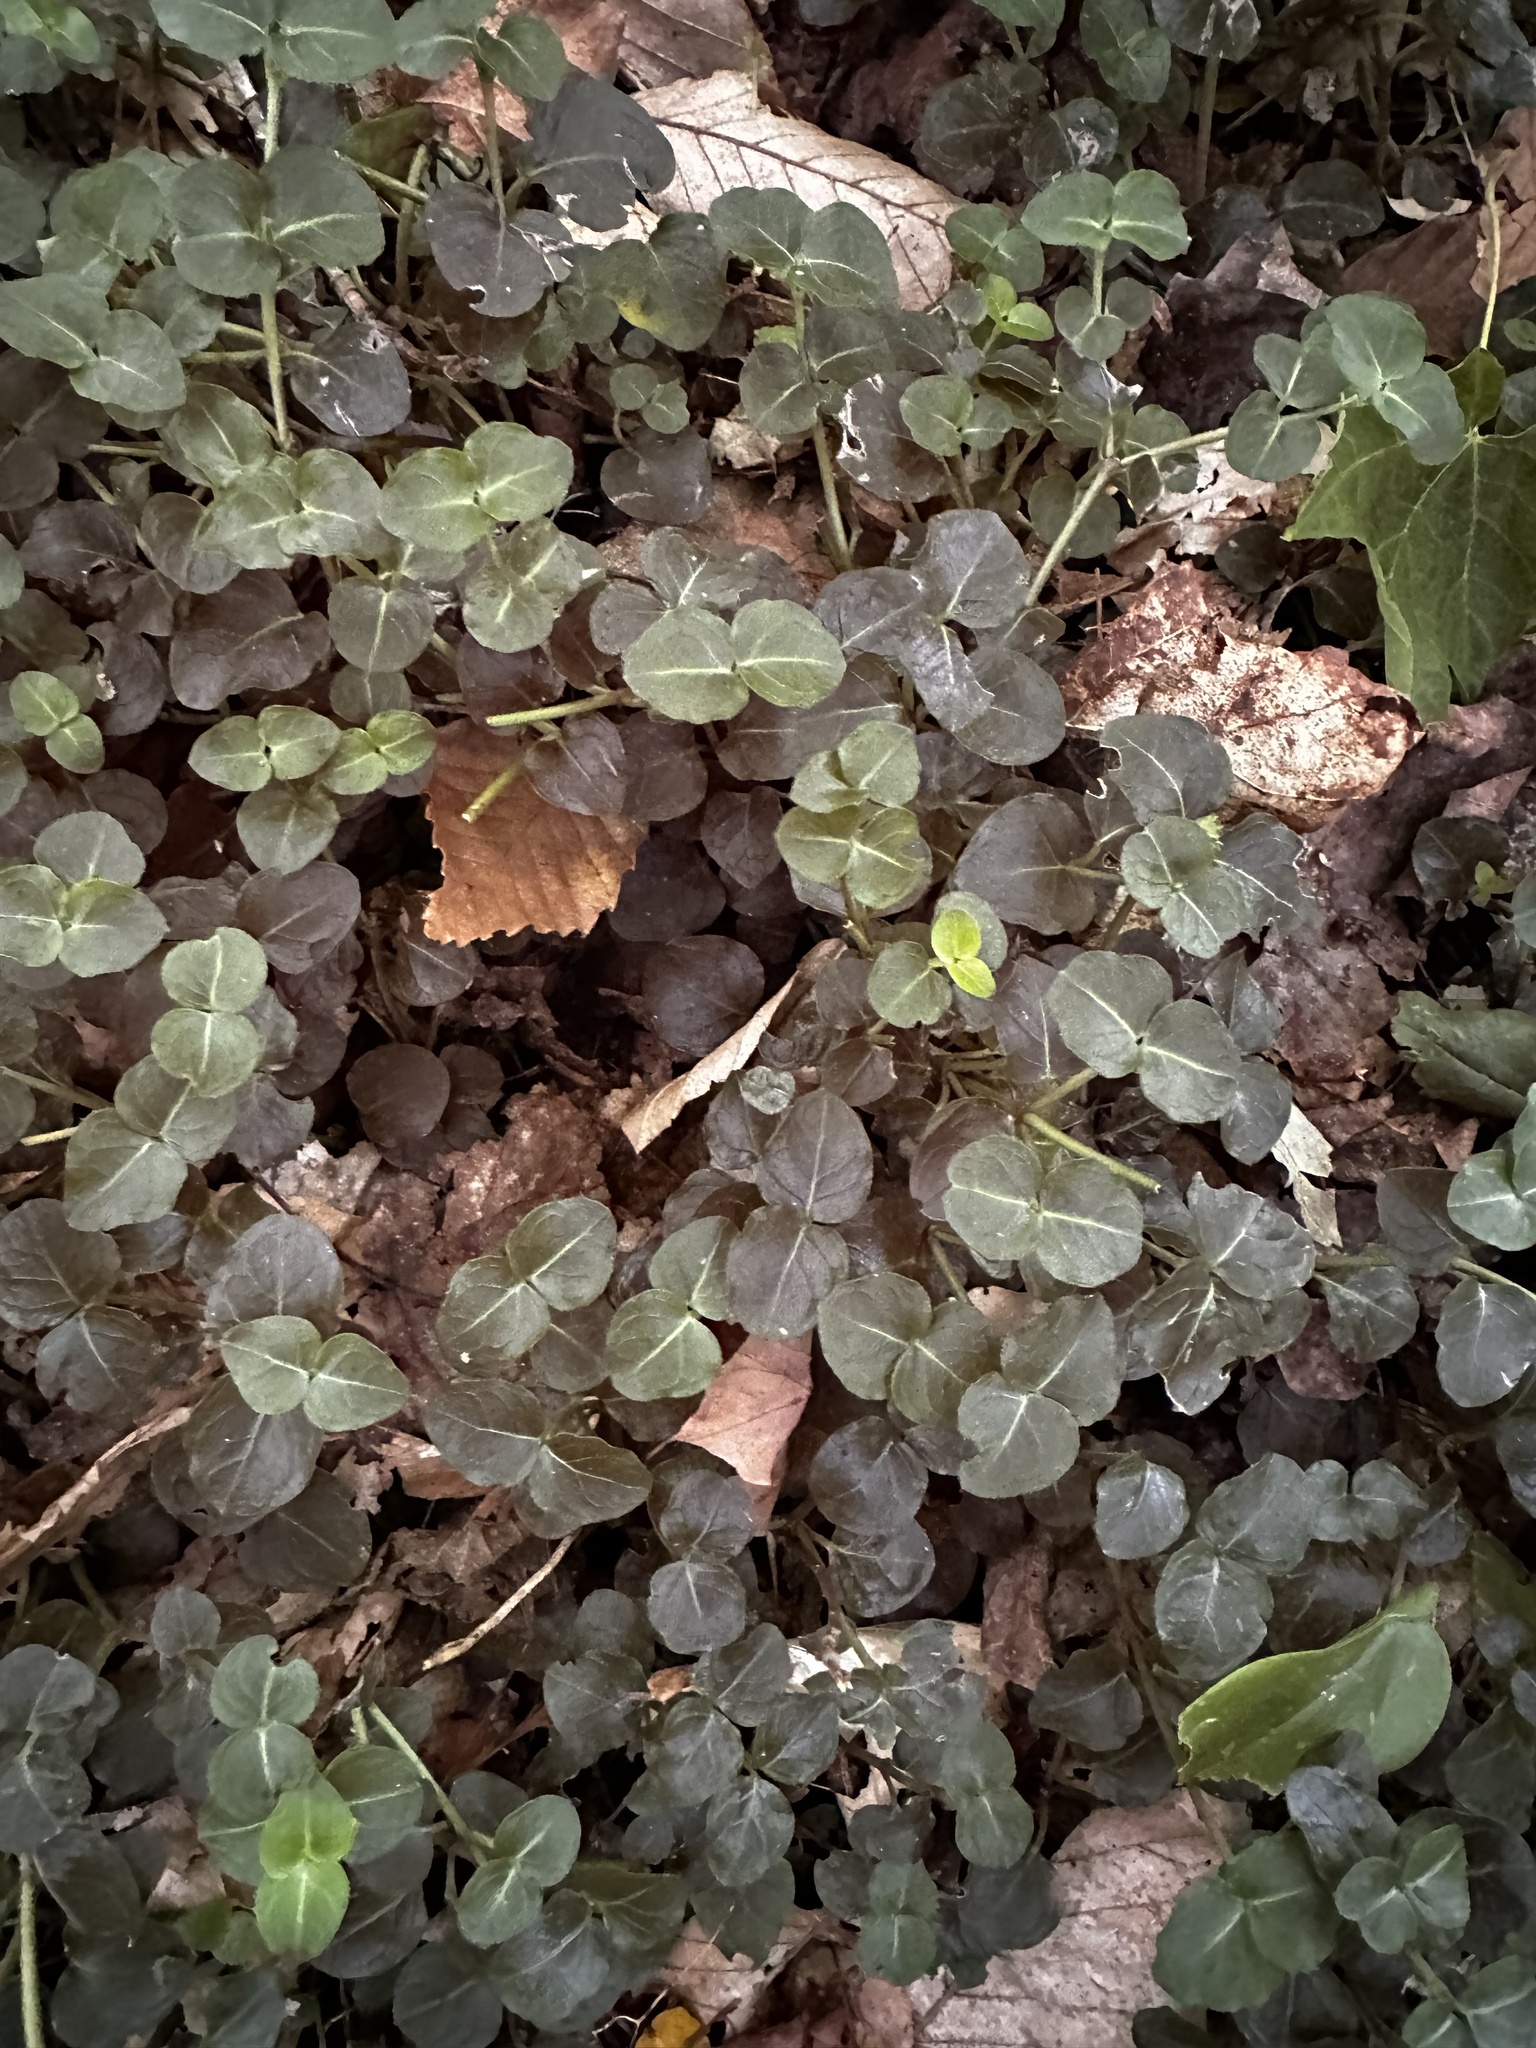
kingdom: Plantae
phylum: Tracheophyta
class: Magnoliopsida
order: Gentianales
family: Rubiaceae
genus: Mitchella
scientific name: Mitchella repens
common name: Partridge-berry
